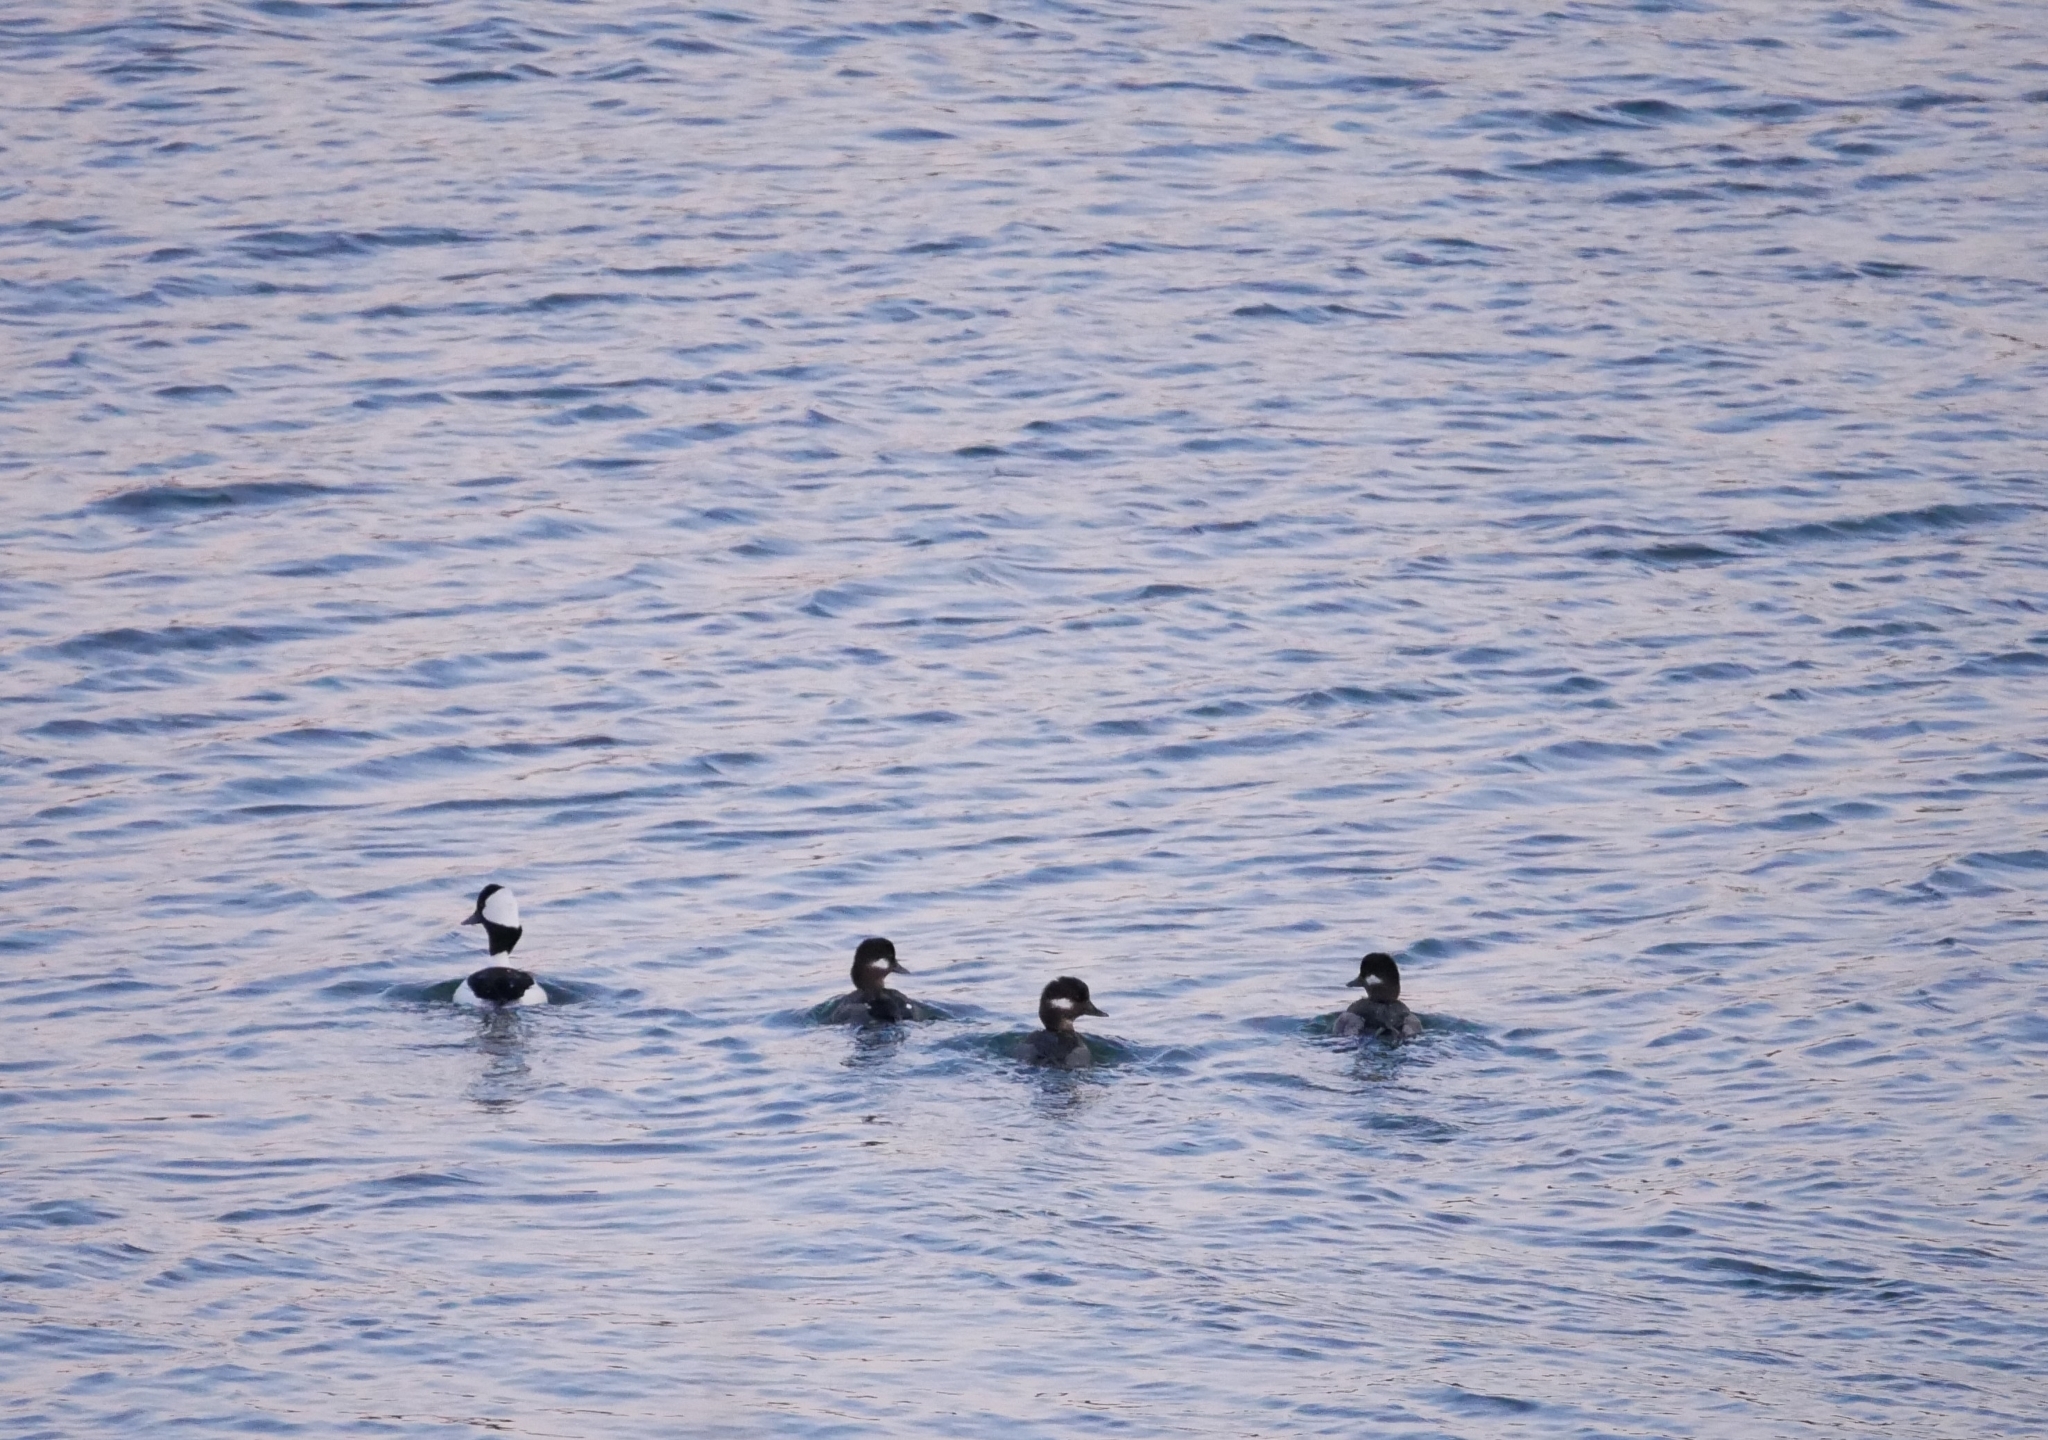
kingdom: Animalia
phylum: Chordata
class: Aves
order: Anseriformes
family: Anatidae
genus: Bucephala
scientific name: Bucephala albeola
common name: Bufflehead
